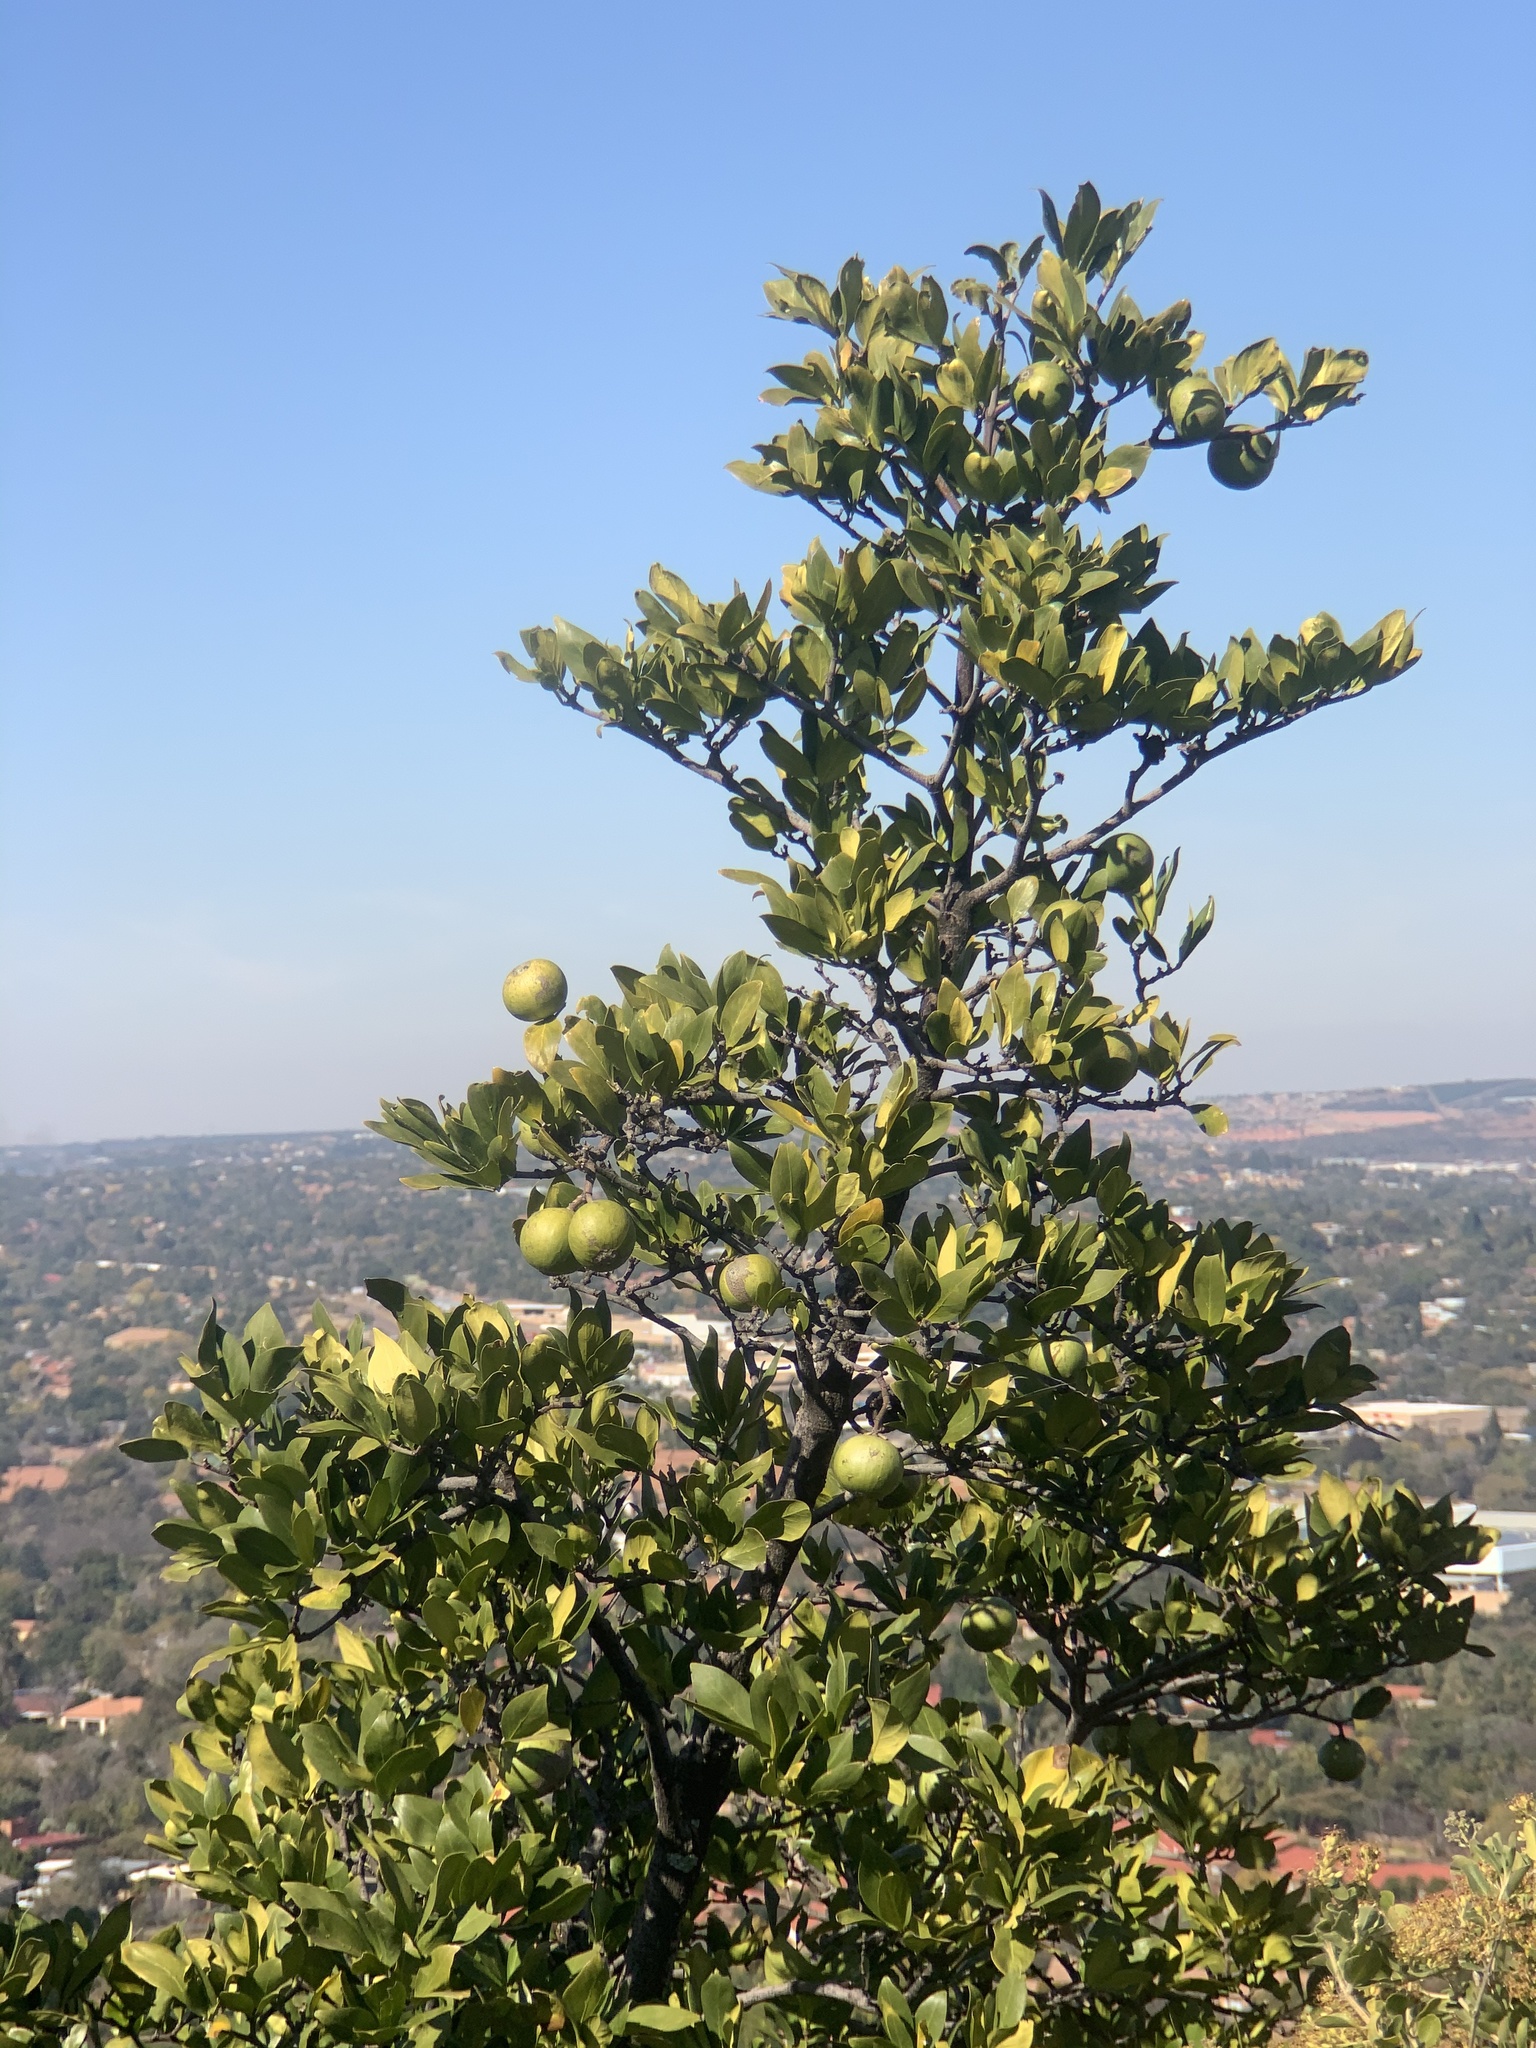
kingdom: Plantae
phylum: Tracheophyta
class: Magnoliopsida
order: Gentianales
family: Rubiaceae
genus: Rothmannia
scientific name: Rothmannia capensis
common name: Cape gardenia
